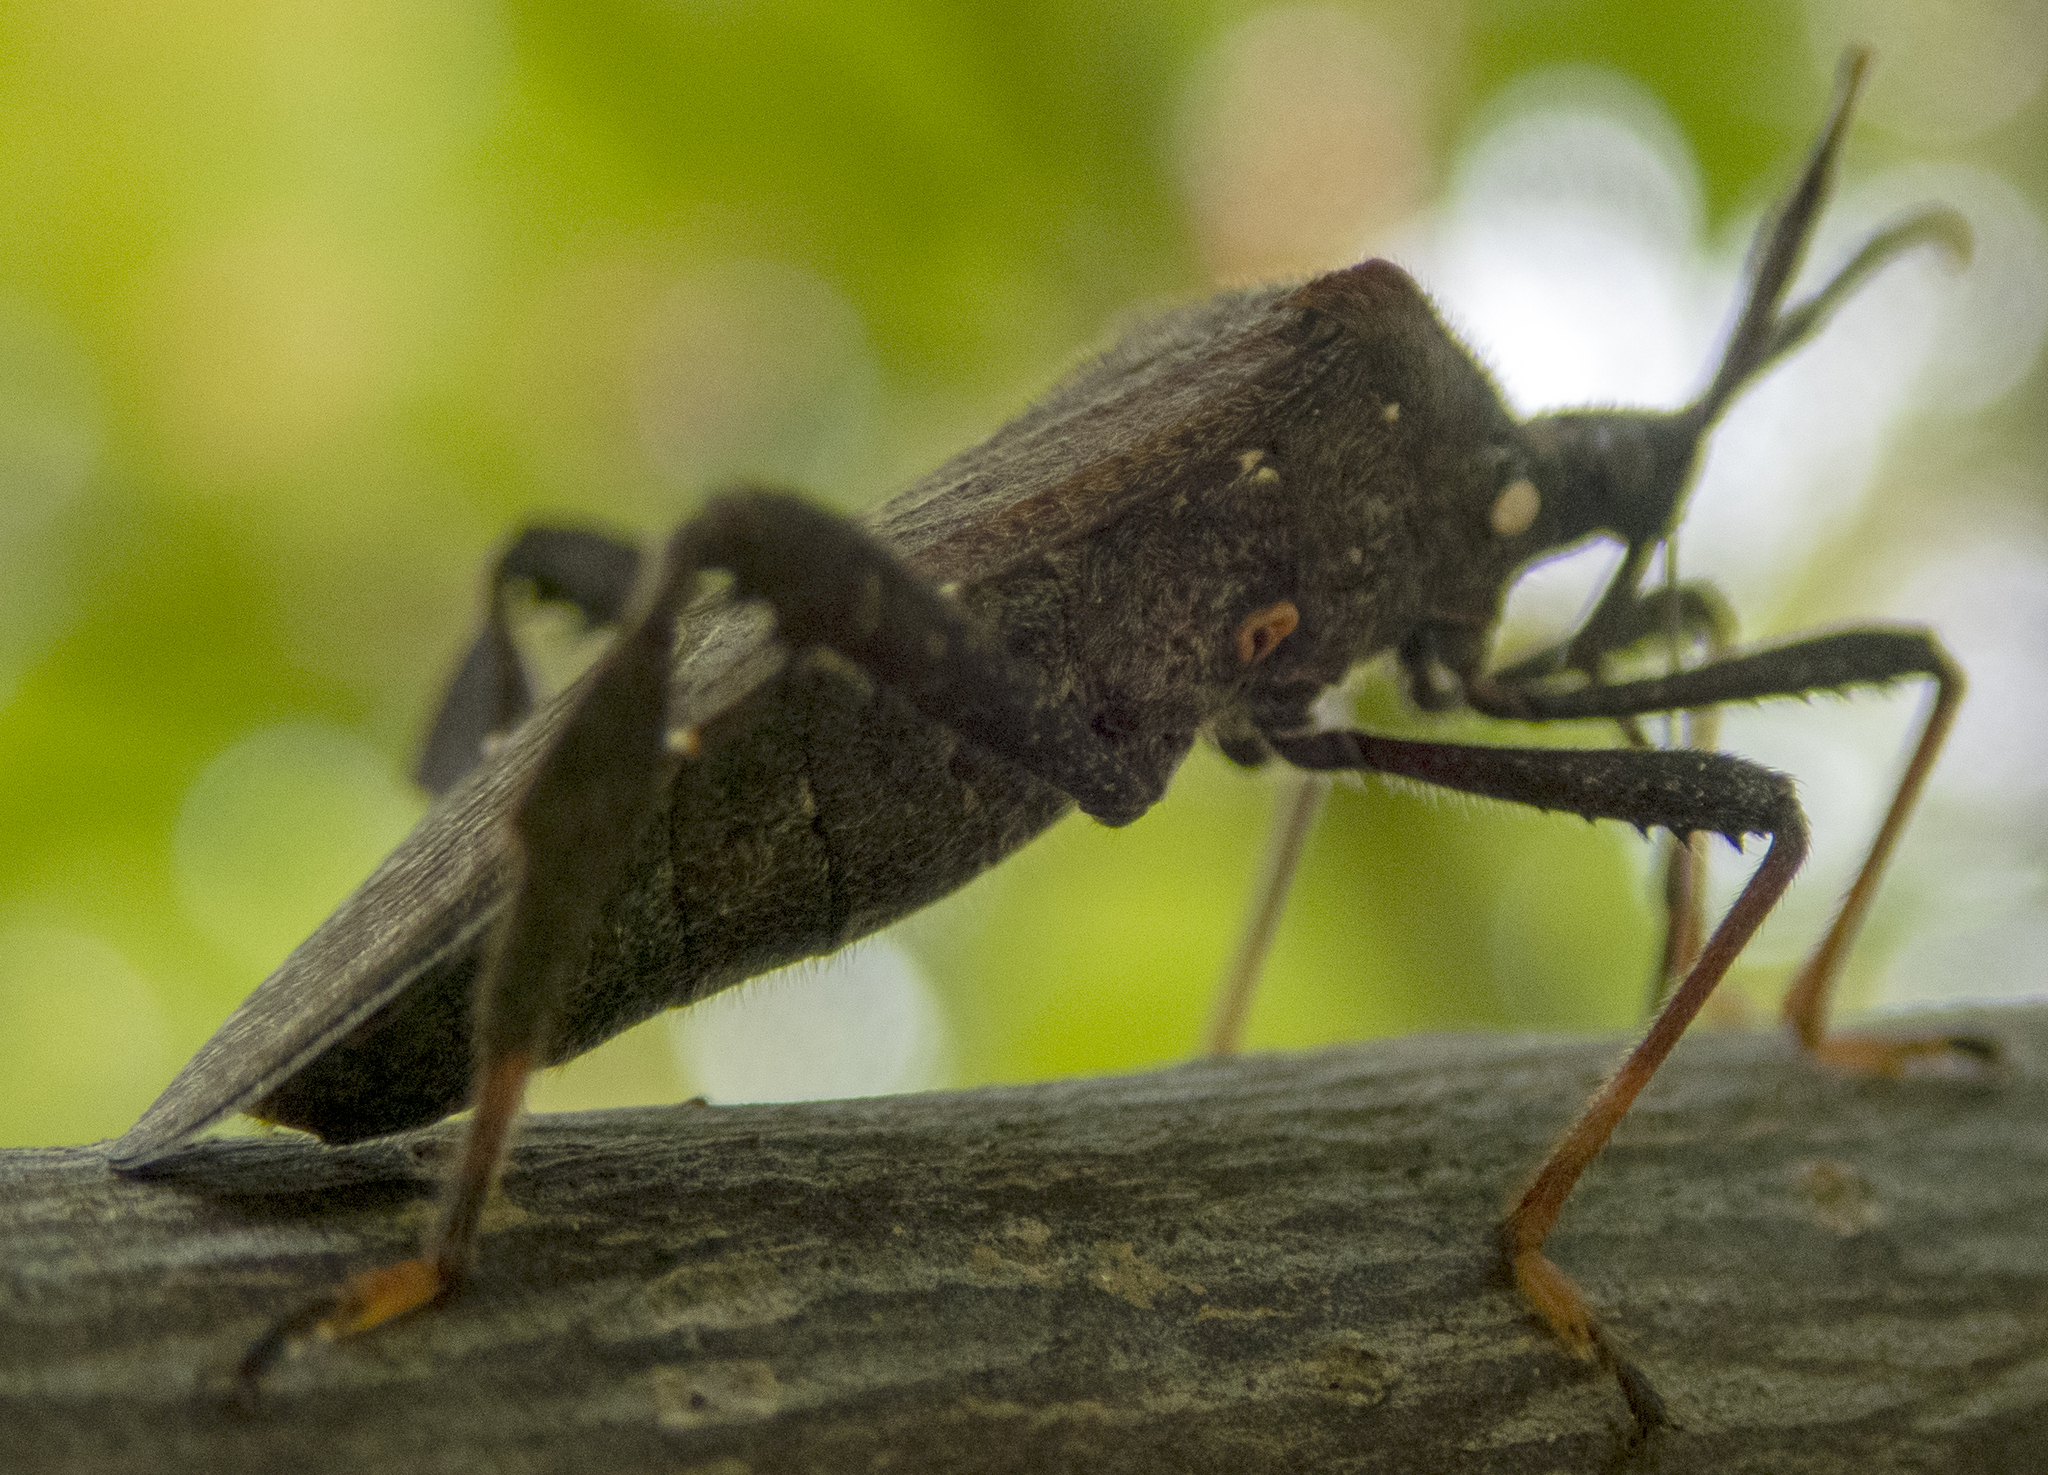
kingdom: Animalia
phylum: Arthropoda
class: Insecta
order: Hemiptera
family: Coreidae
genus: Acanthocephala
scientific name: Acanthocephala terminalis
